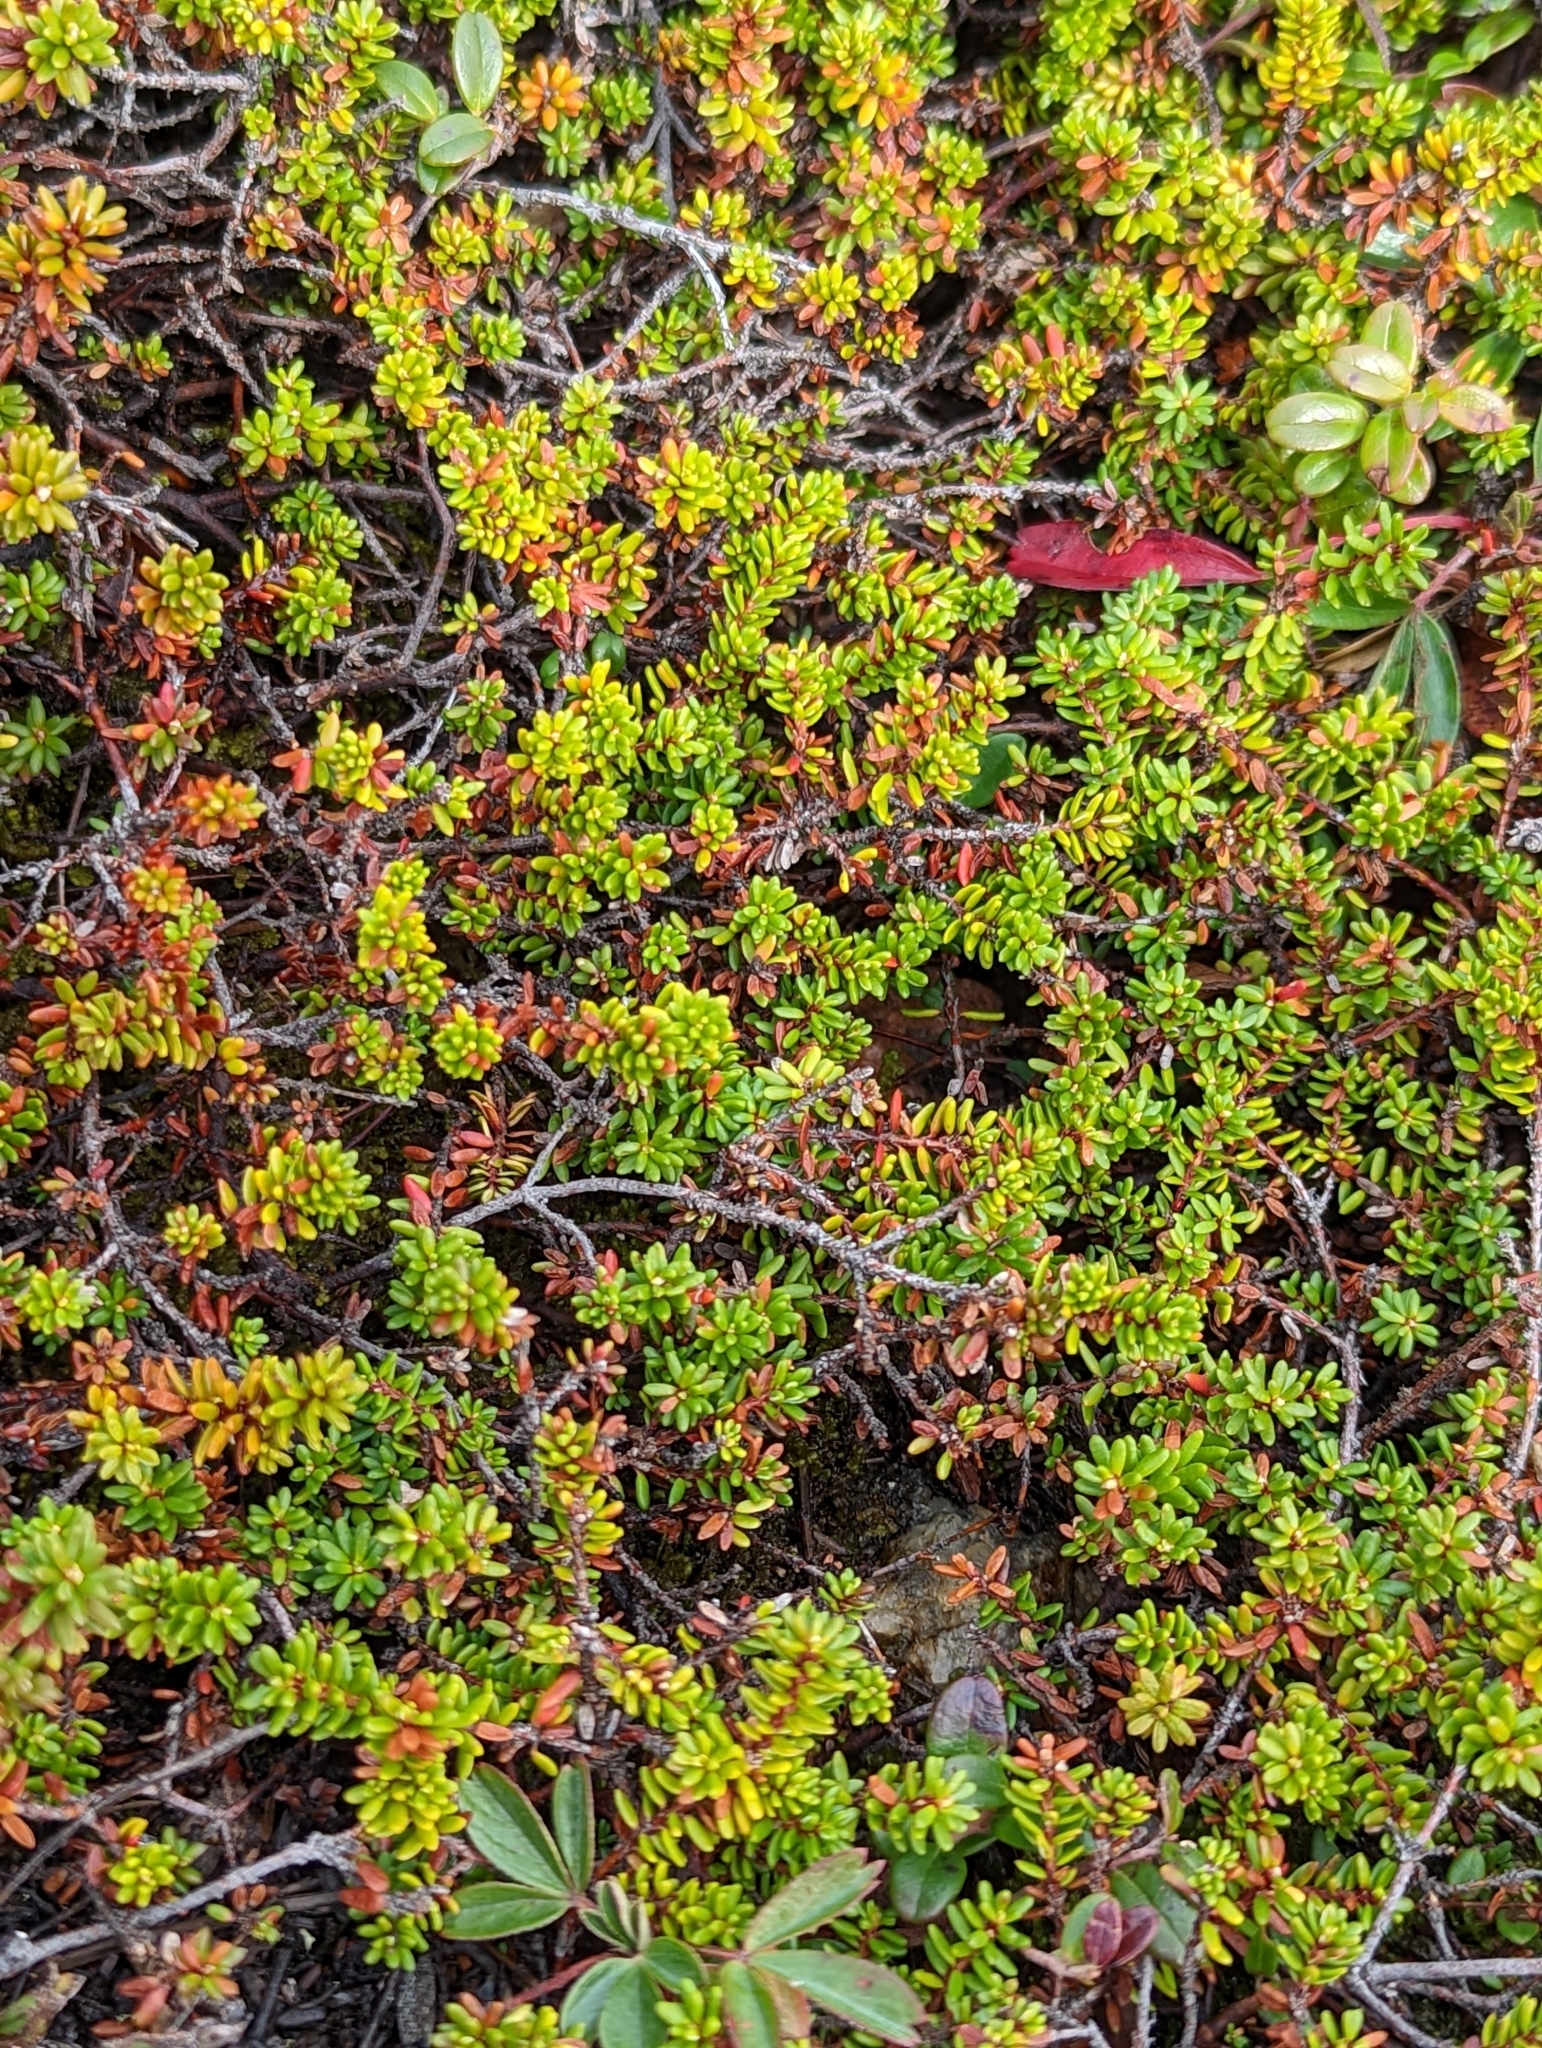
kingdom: Plantae
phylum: Tracheophyta
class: Magnoliopsida
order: Ericales
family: Ericaceae
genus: Empetrum
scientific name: Empetrum nigrum
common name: Black crowberry
